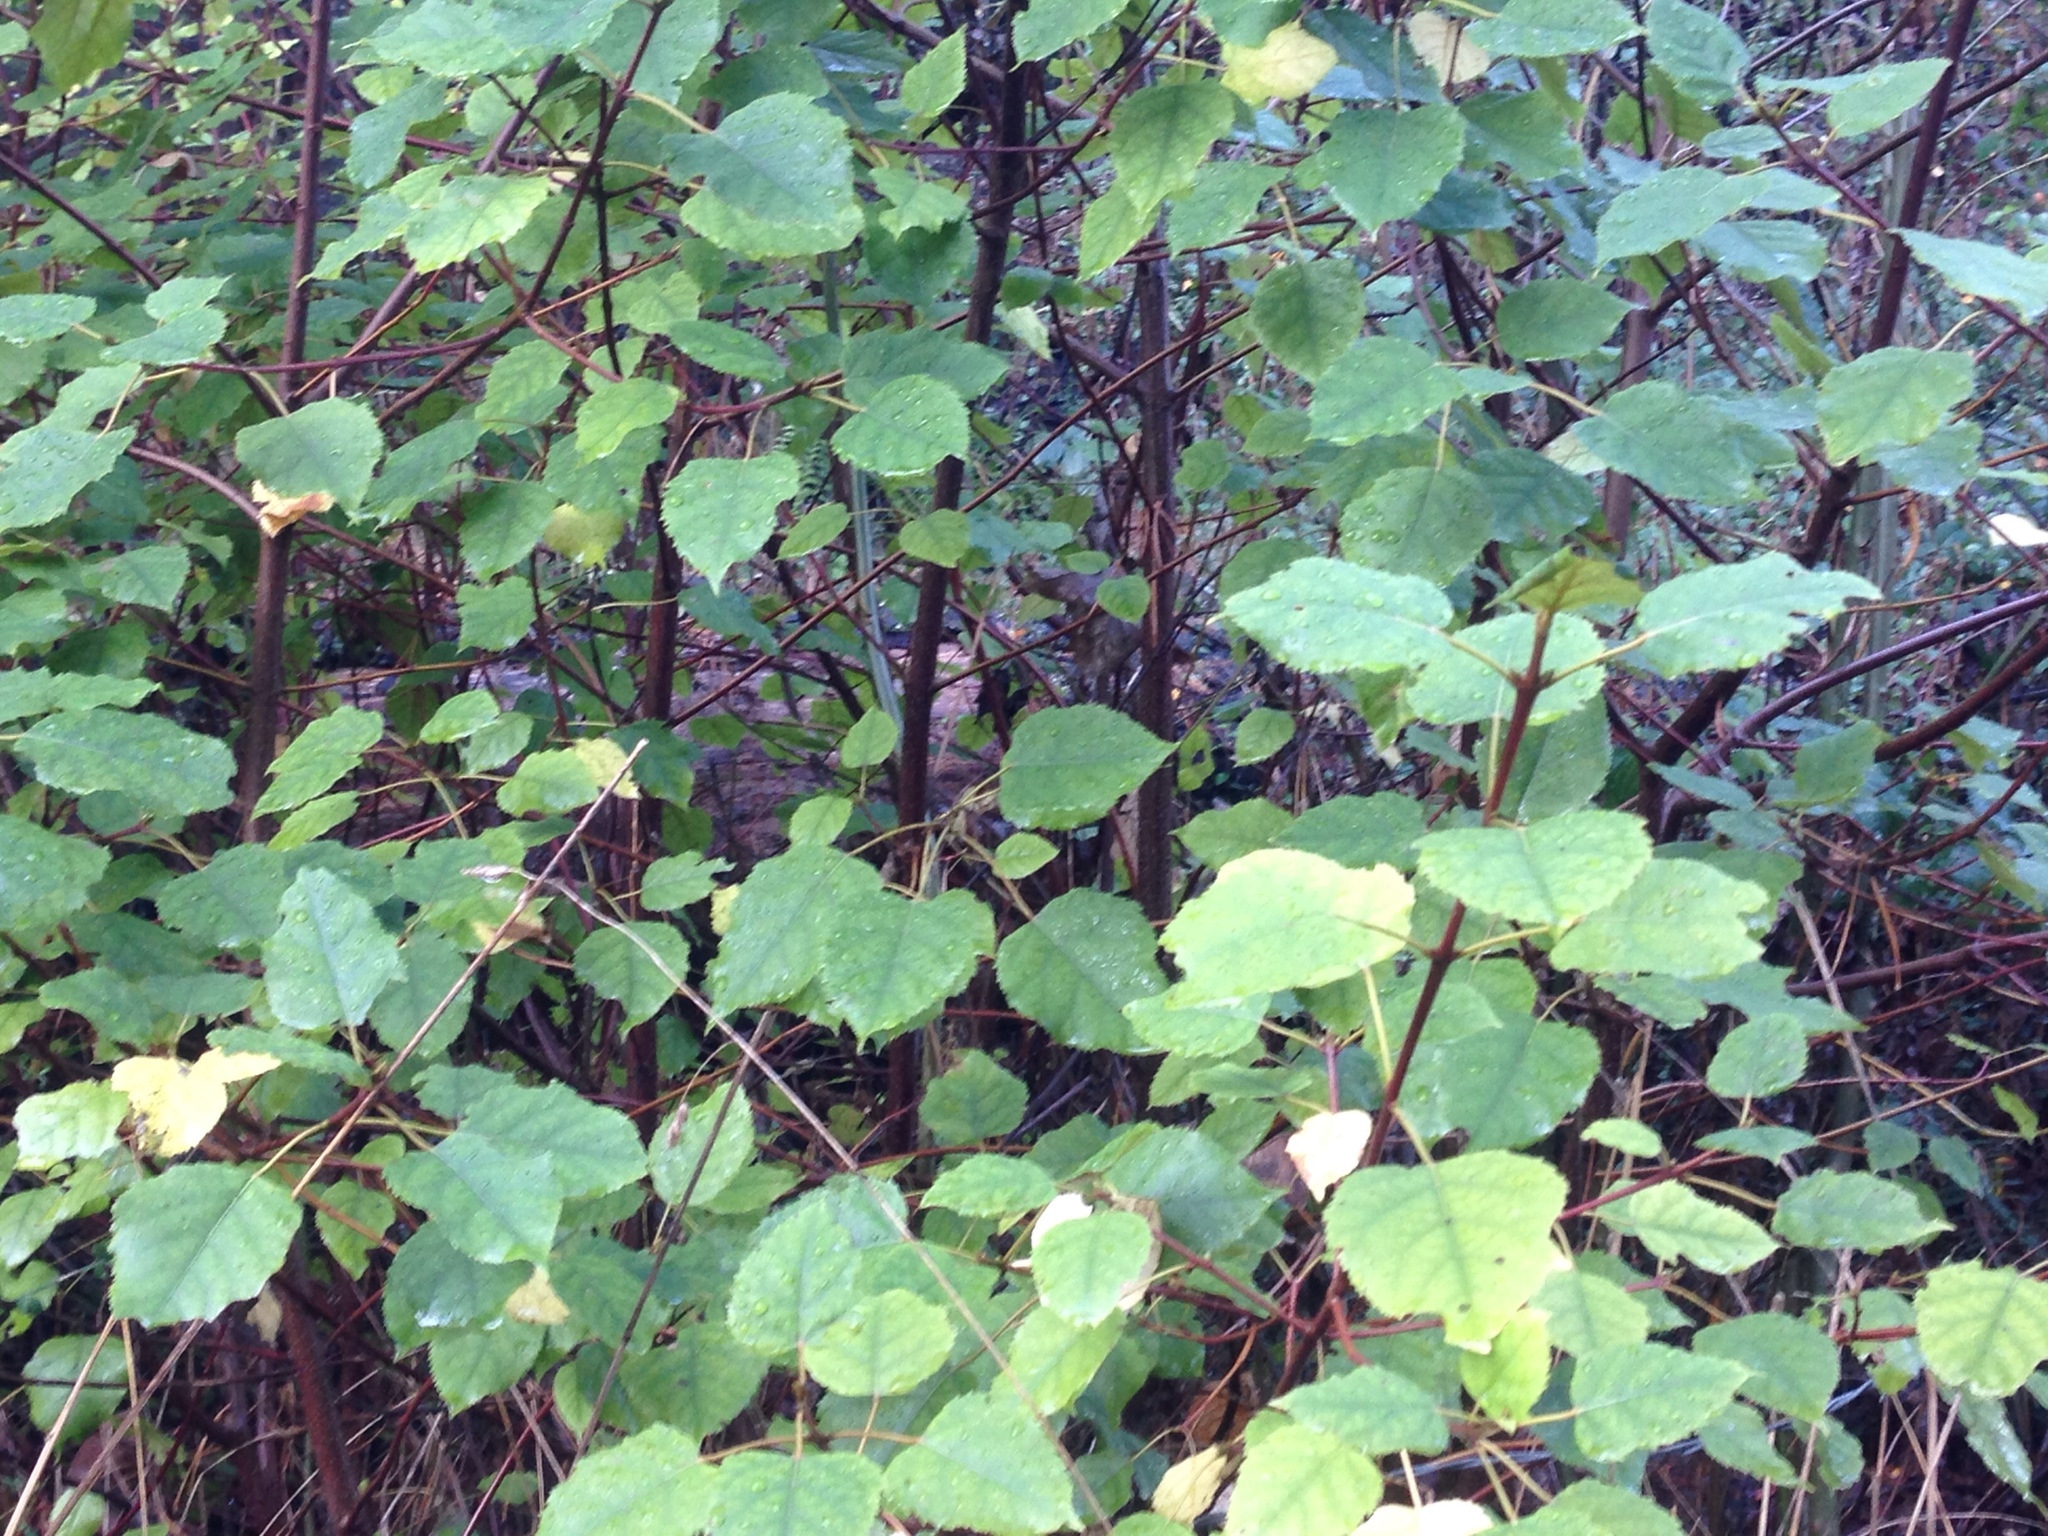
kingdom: Plantae
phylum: Tracheophyta
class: Magnoliopsida
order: Oxalidales
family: Elaeocarpaceae
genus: Aristotelia
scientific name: Aristotelia serrata
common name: New zealand wineberry
